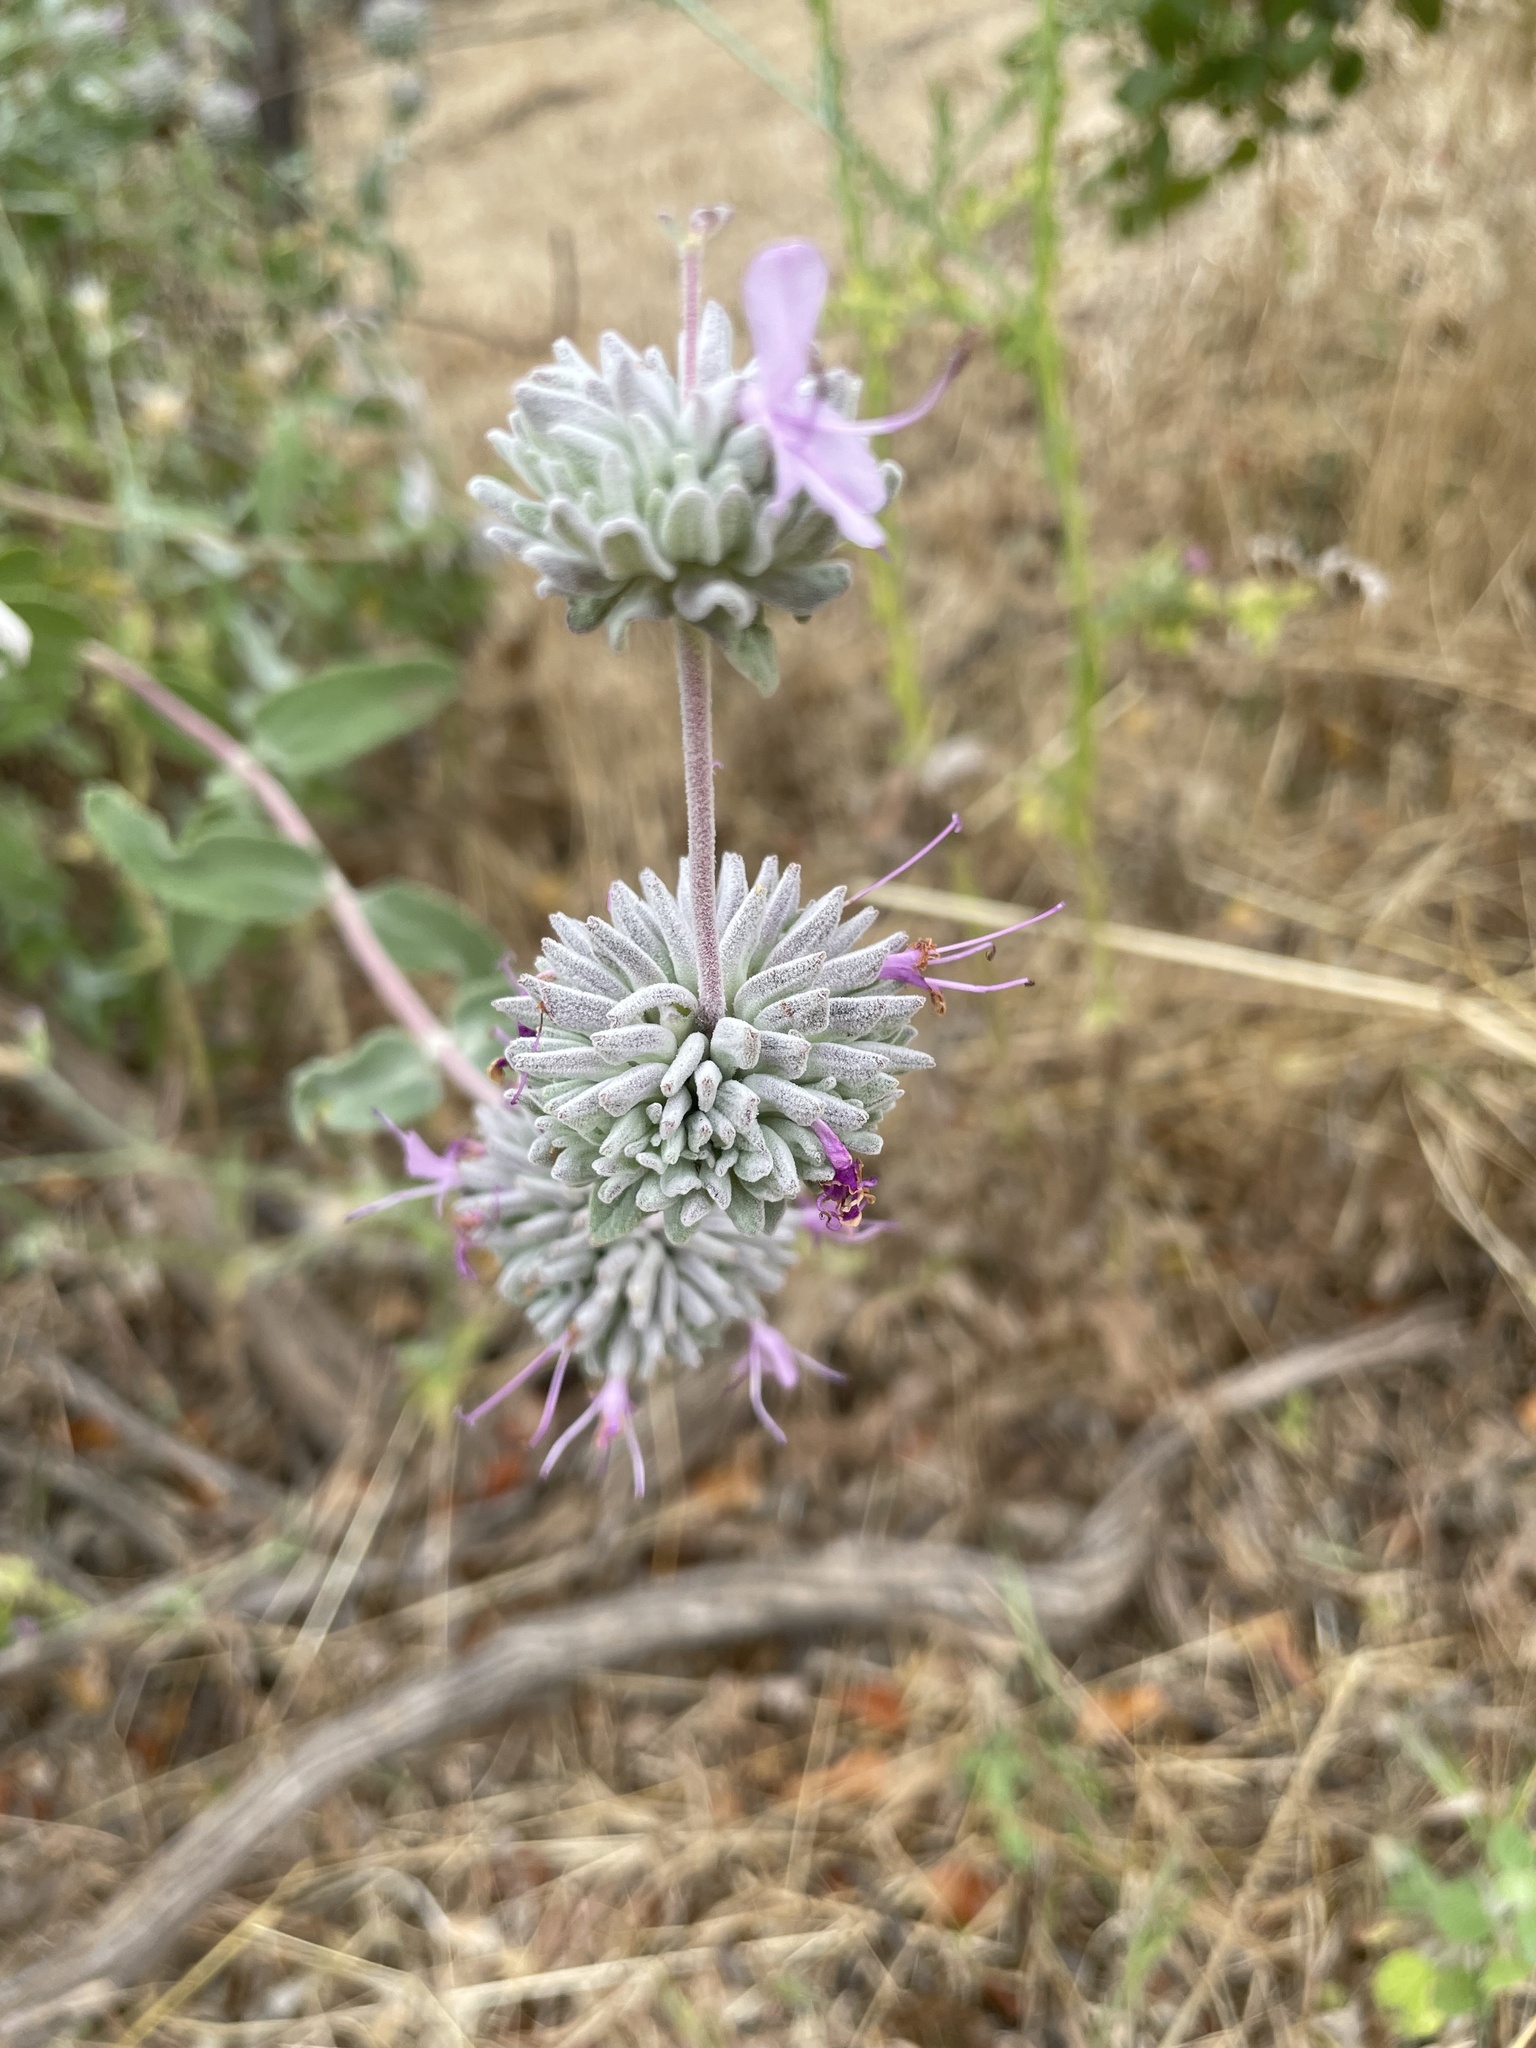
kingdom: Plantae
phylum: Tracheophyta
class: Magnoliopsida
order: Lamiales
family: Lamiaceae
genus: Salvia
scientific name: Salvia leucophylla
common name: Purple sage
